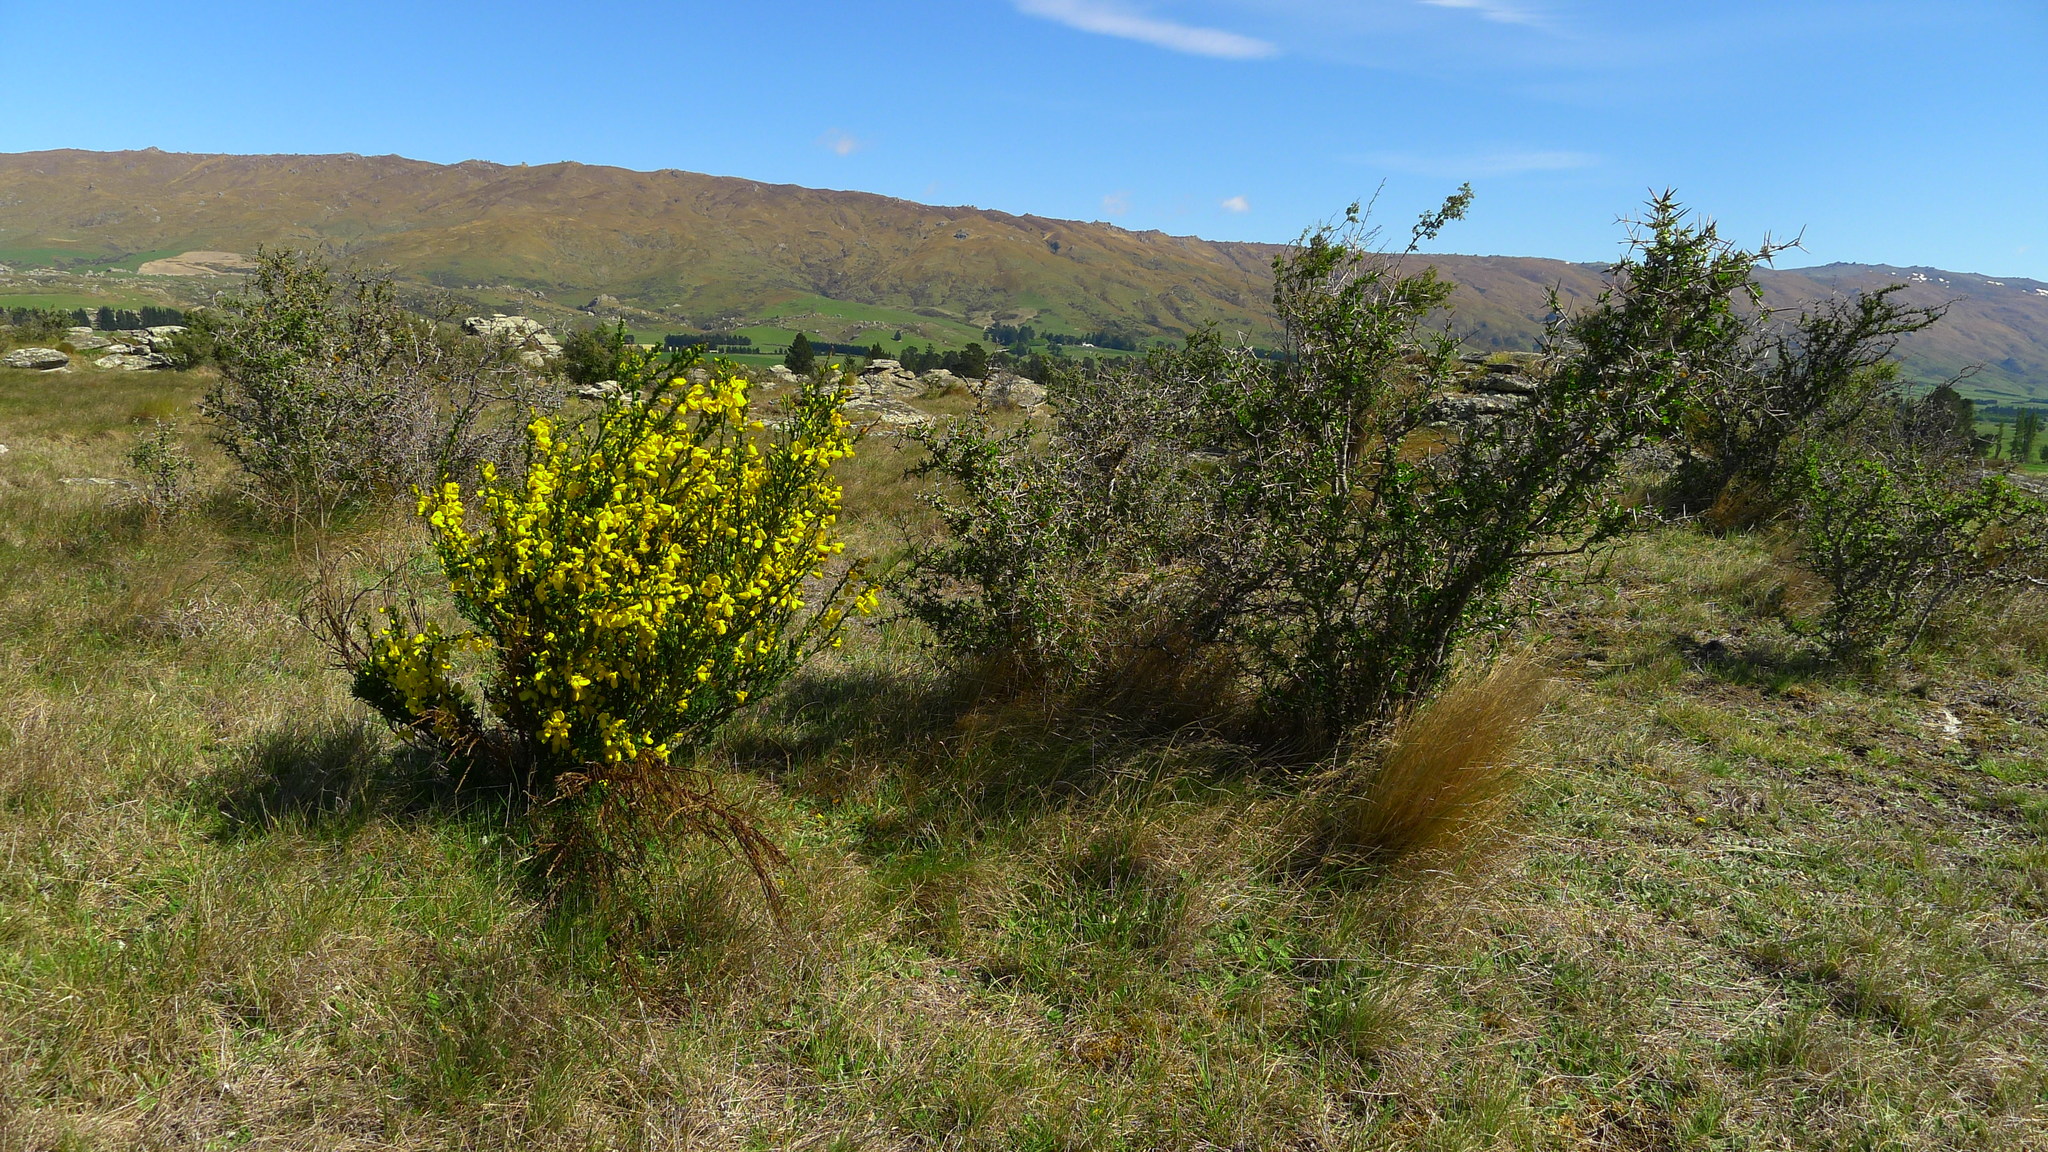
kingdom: Plantae
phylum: Tracheophyta
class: Magnoliopsida
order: Fabales
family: Fabaceae
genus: Cytisus
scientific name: Cytisus scoparius
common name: Scotch broom
